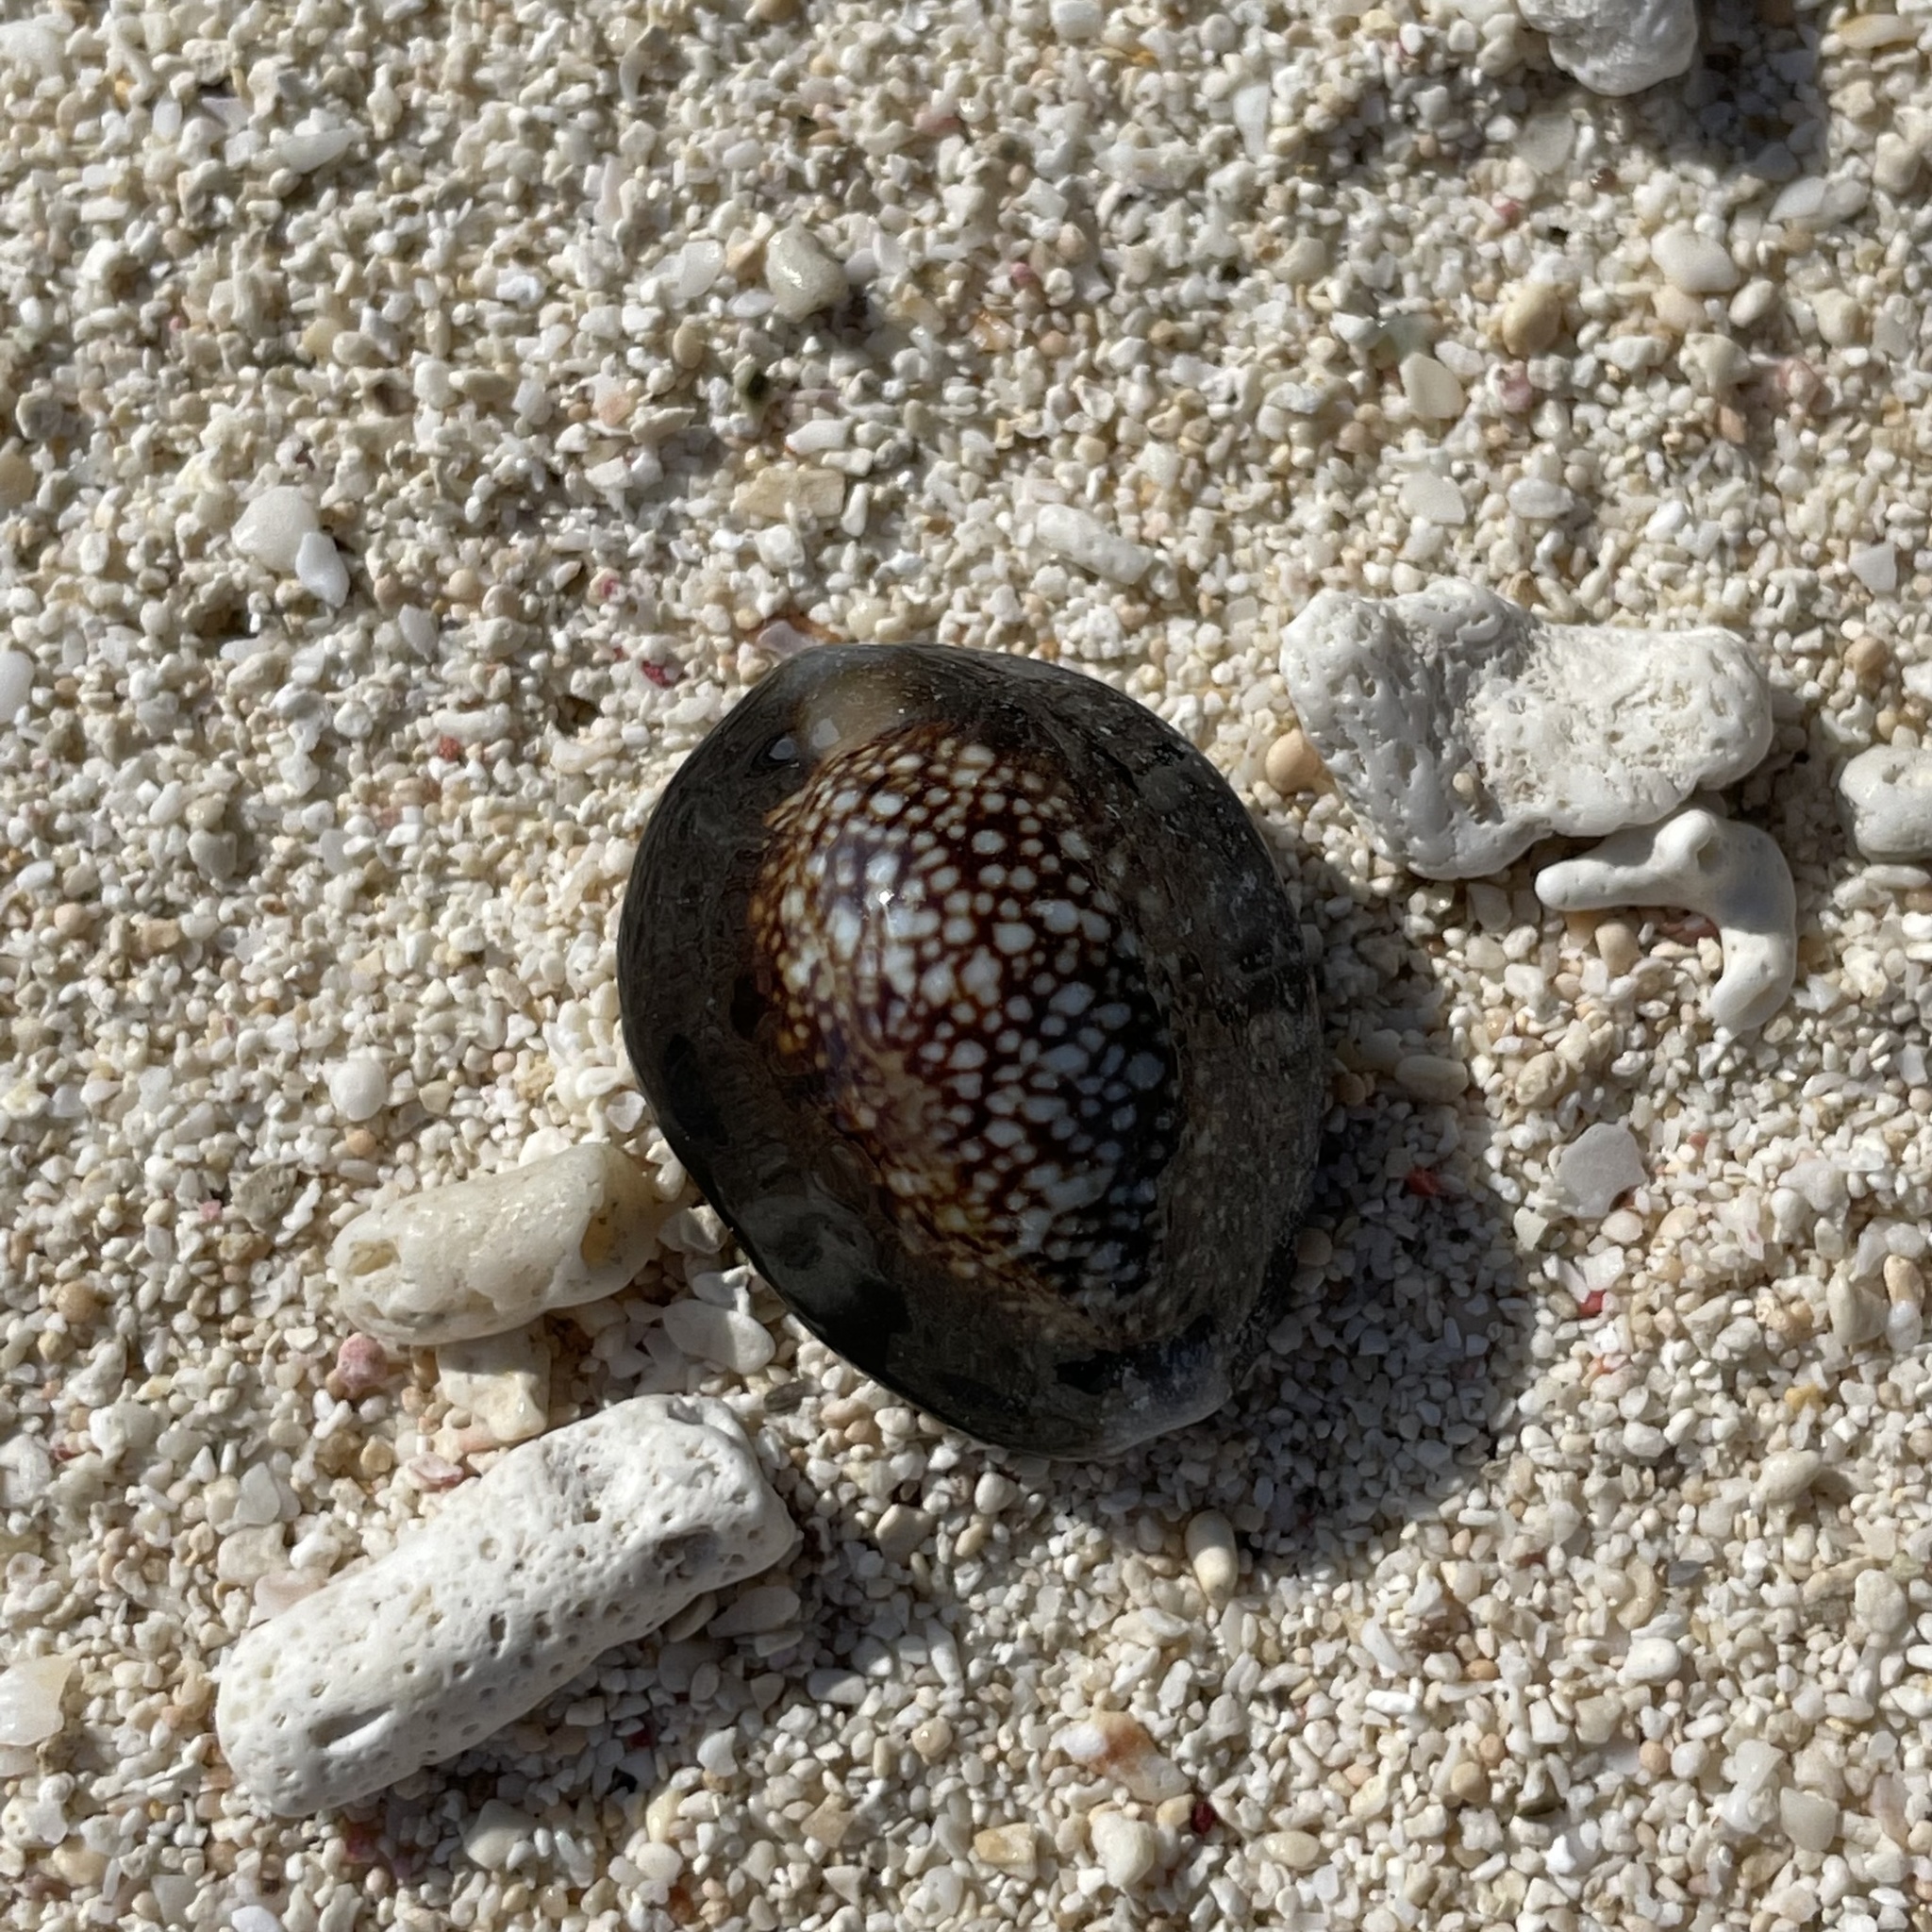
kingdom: Animalia
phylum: Mollusca
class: Gastropoda
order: Littorinimorpha
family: Cypraeidae
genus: Monetaria
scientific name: Monetaria caputserpentis
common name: Serpent's head cowrie
